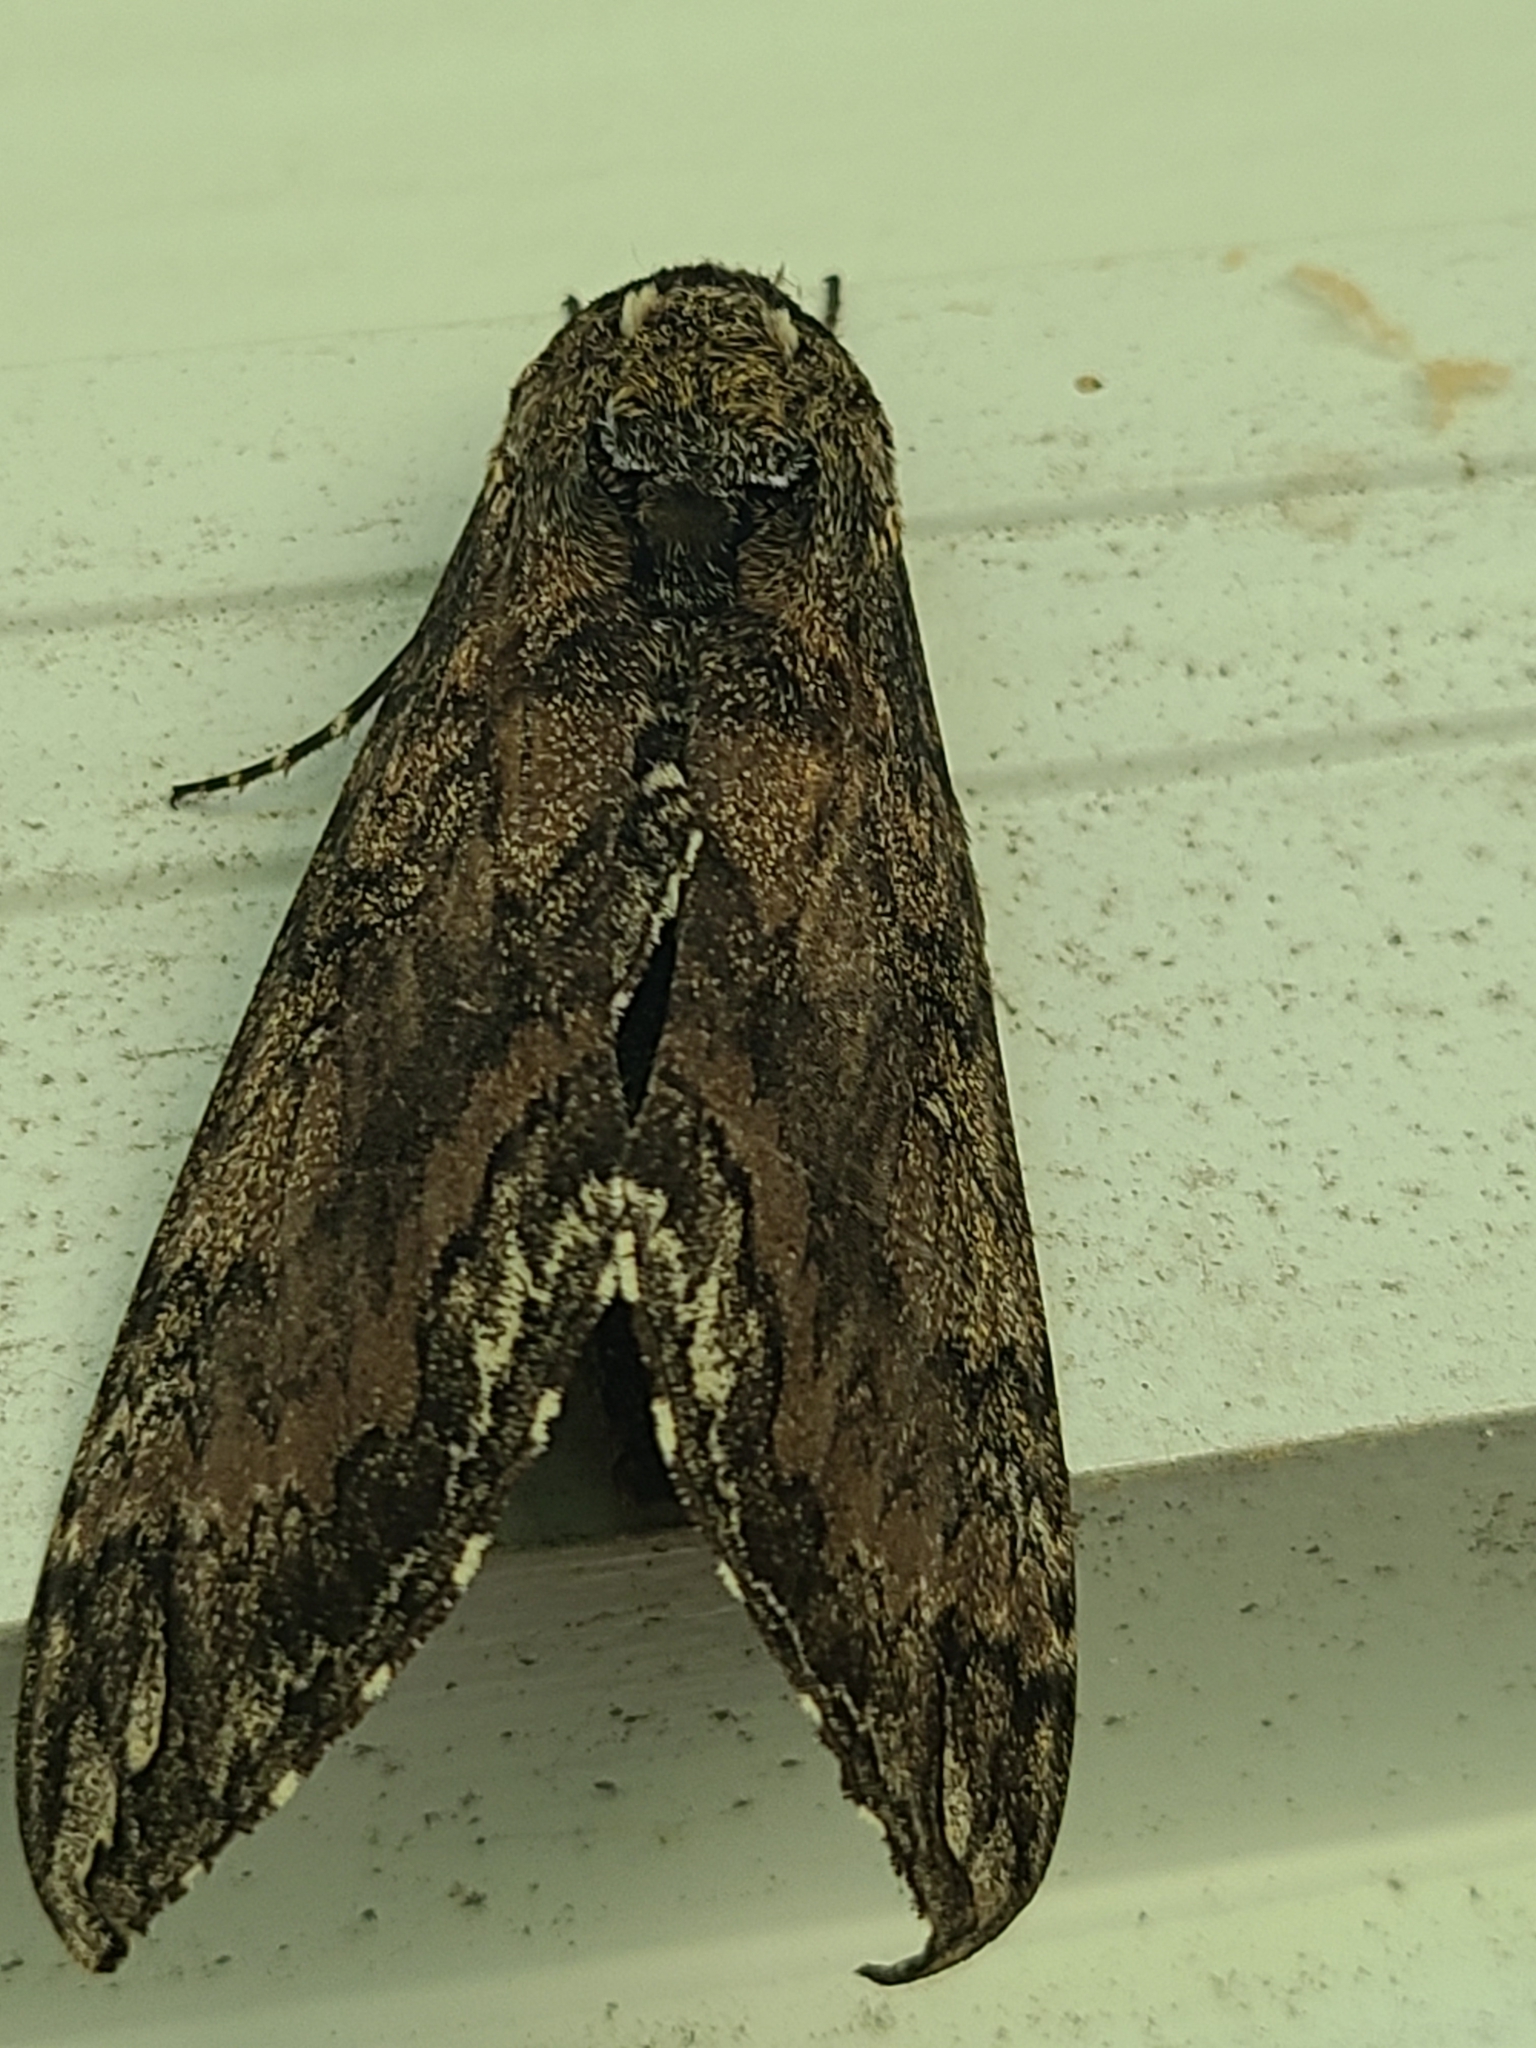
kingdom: Animalia
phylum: Arthropoda
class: Insecta
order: Lepidoptera
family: Sphingidae
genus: Manduca
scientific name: Manduca sexta
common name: Carolina sphinx
